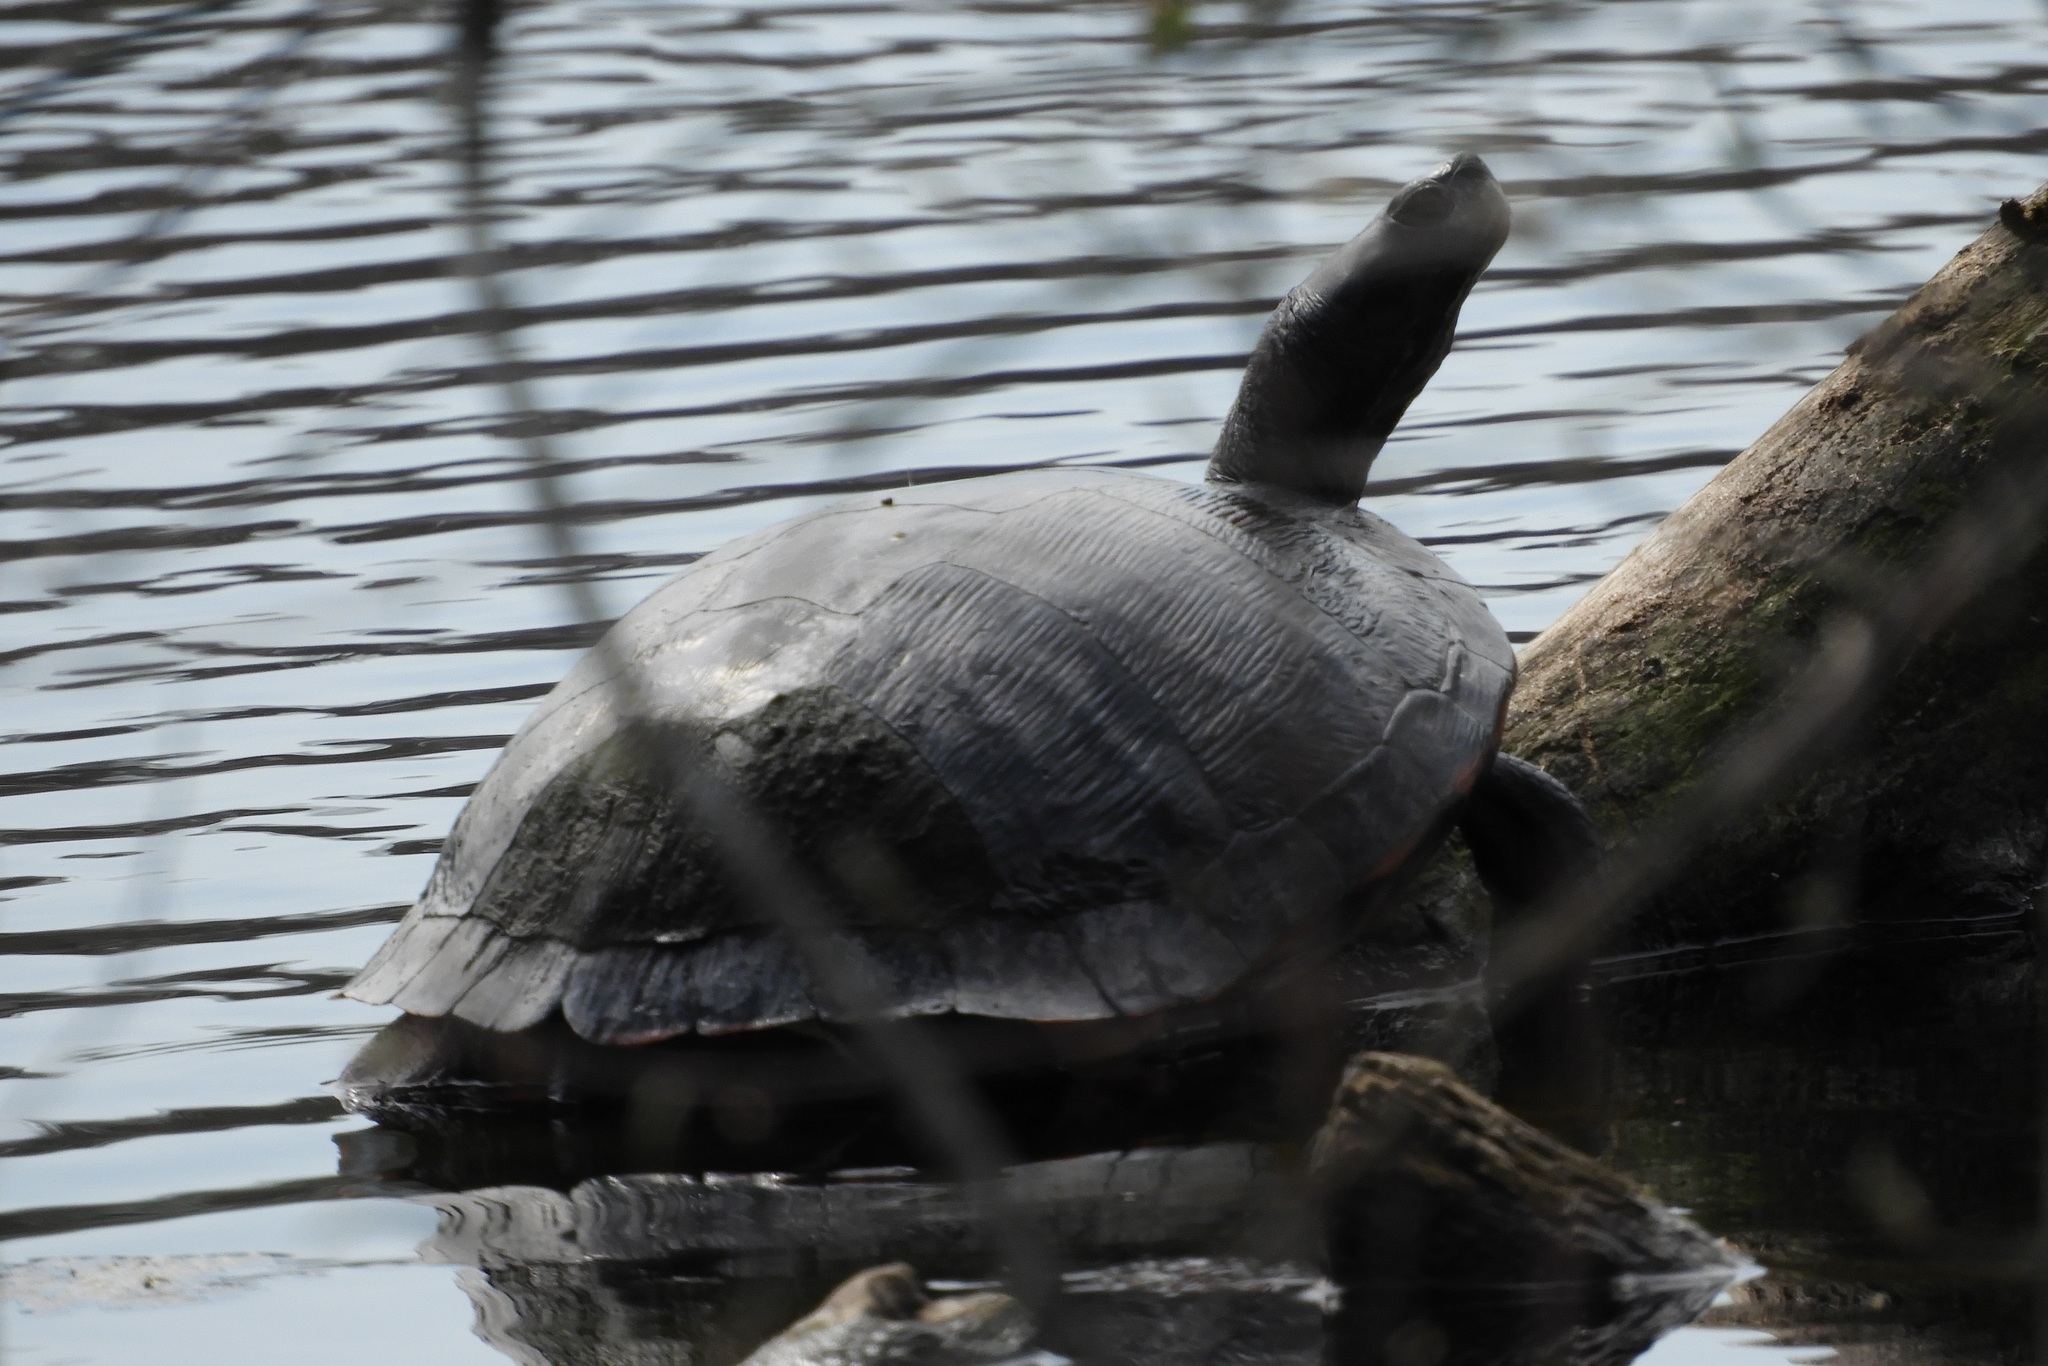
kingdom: Animalia
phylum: Chordata
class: Testudines
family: Emydidae
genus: Pseudemys
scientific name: Pseudemys rubriventris
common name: American red-bellied turtle
